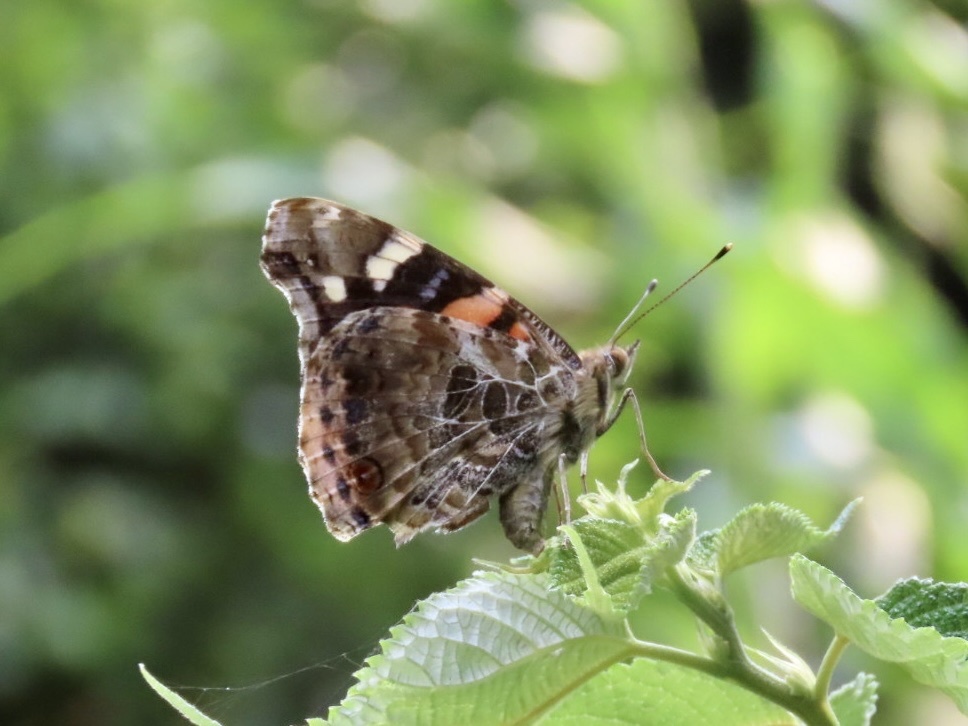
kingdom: Animalia
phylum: Arthropoda
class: Insecta
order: Lepidoptera
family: Nymphalidae
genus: Vanessa
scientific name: Vanessa indica
